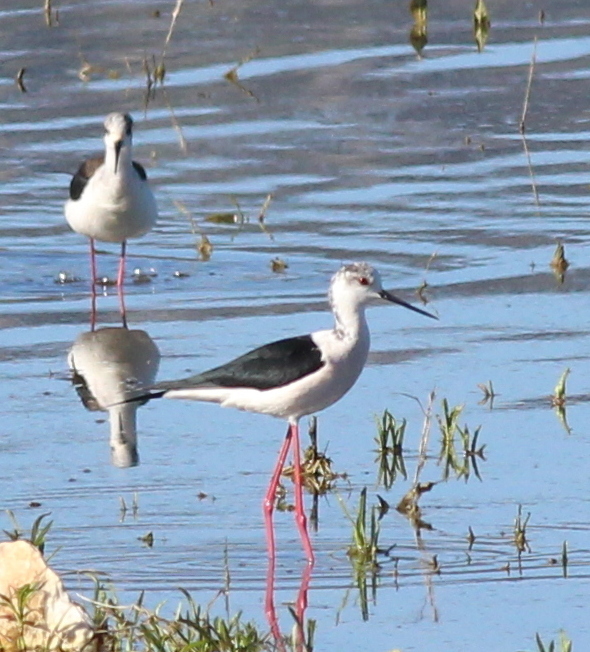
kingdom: Animalia
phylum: Chordata
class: Aves
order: Charadriiformes
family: Recurvirostridae
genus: Himantopus
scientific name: Himantopus himantopus
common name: Black-winged stilt
